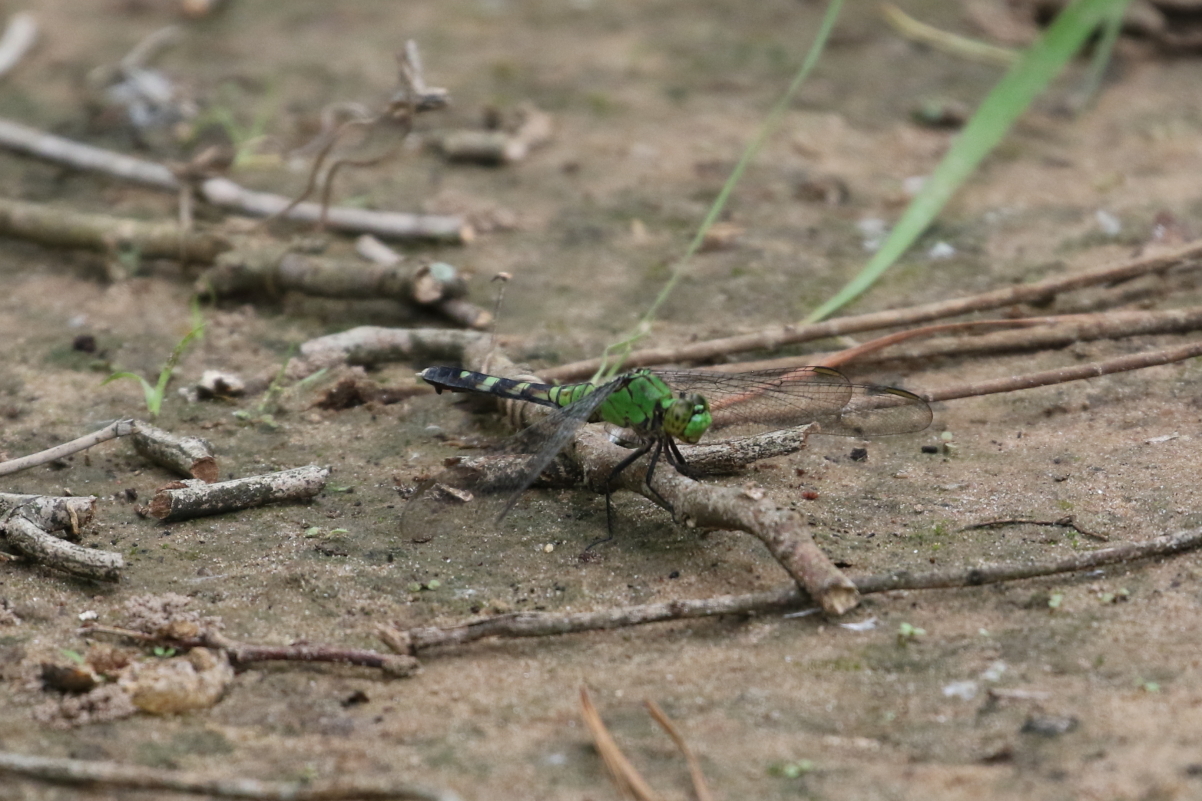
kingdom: Animalia
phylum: Arthropoda
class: Insecta
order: Odonata
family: Libellulidae
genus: Erythemis
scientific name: Erythemis simplicicollis
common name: Eastern pondhawk
